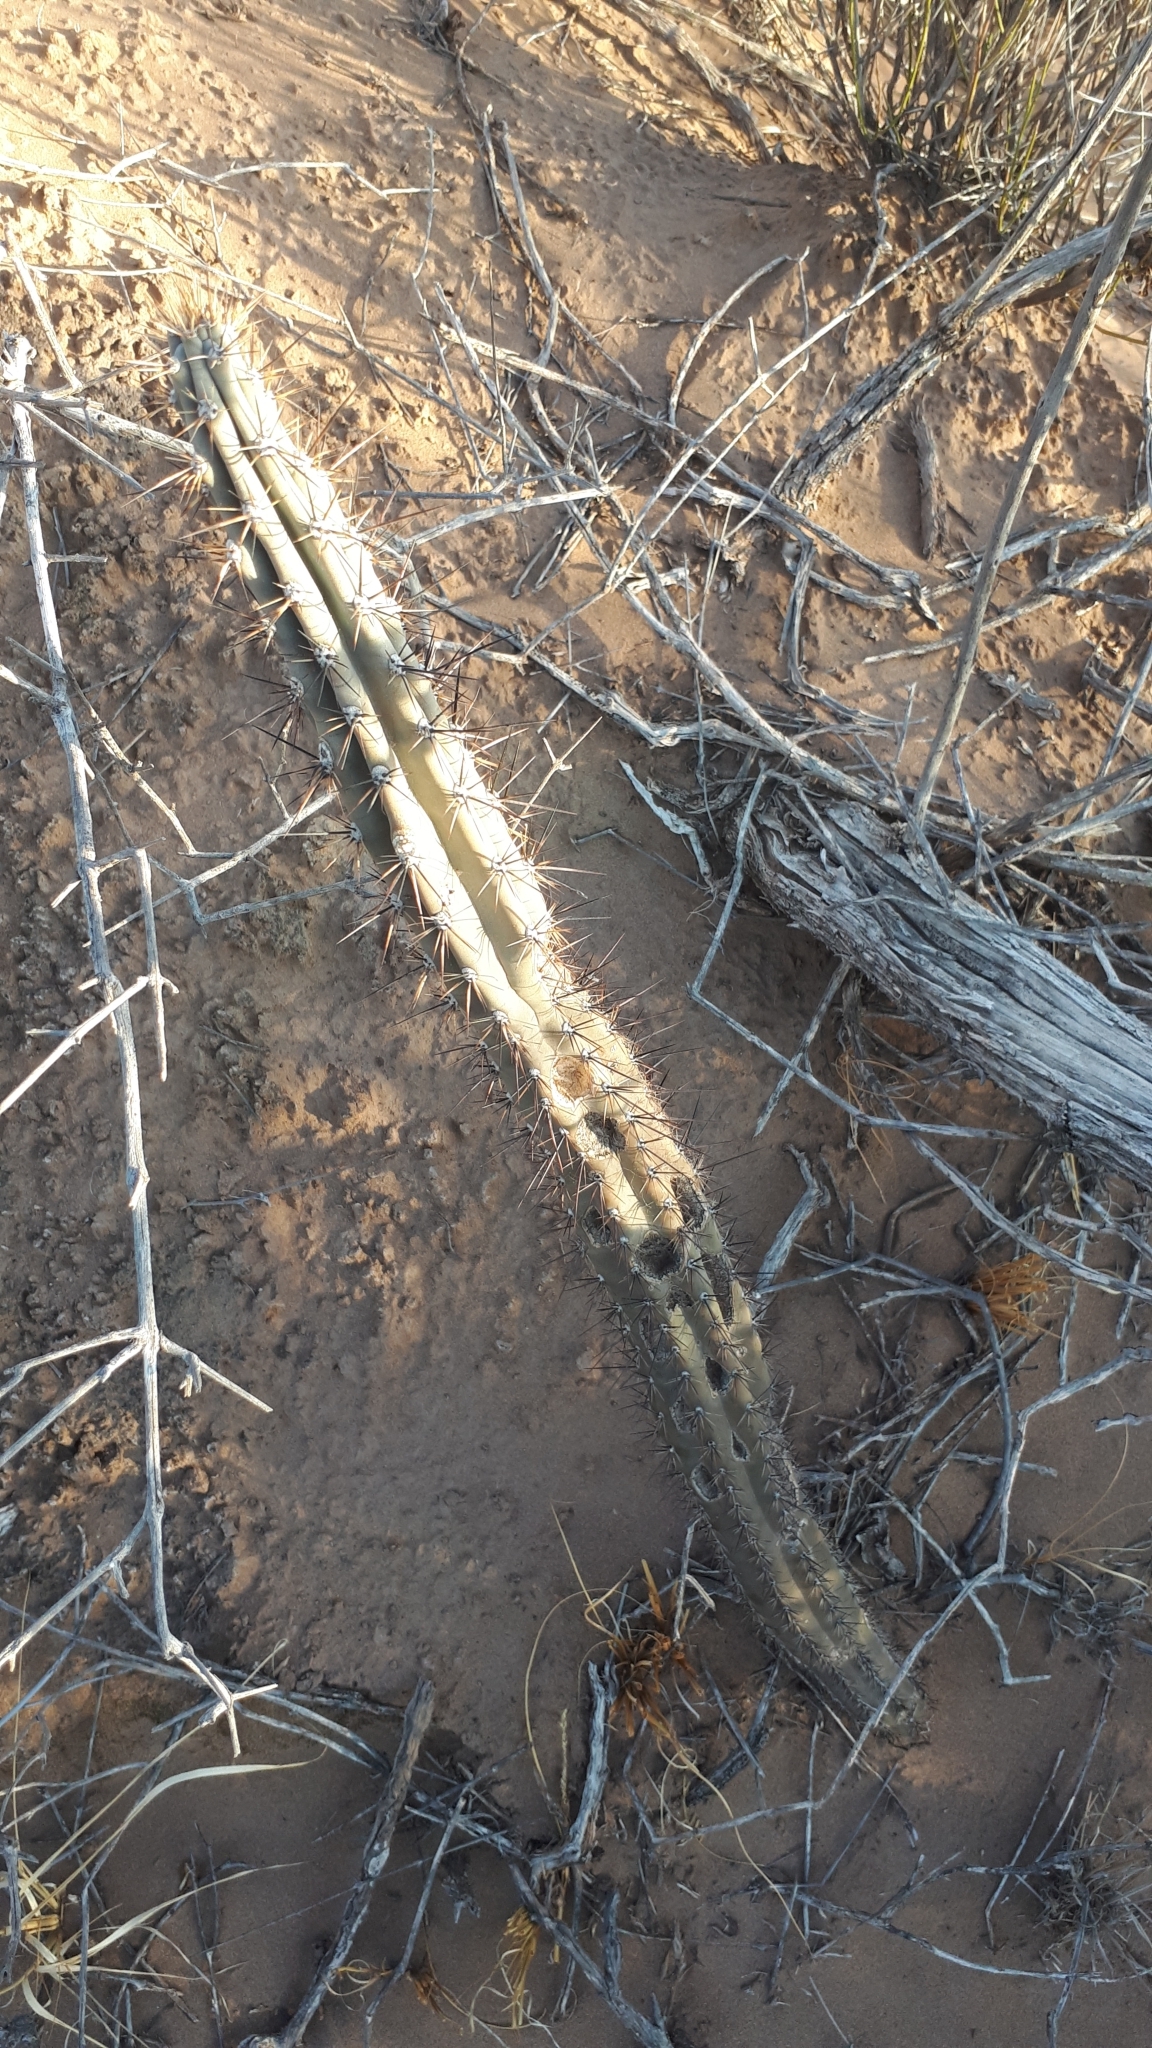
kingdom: Plantae
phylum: Tracheophyta
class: Magnoliopsida
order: Caryophyllales
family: Cactaceae
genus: Cereus
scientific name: Cereus aethiops
